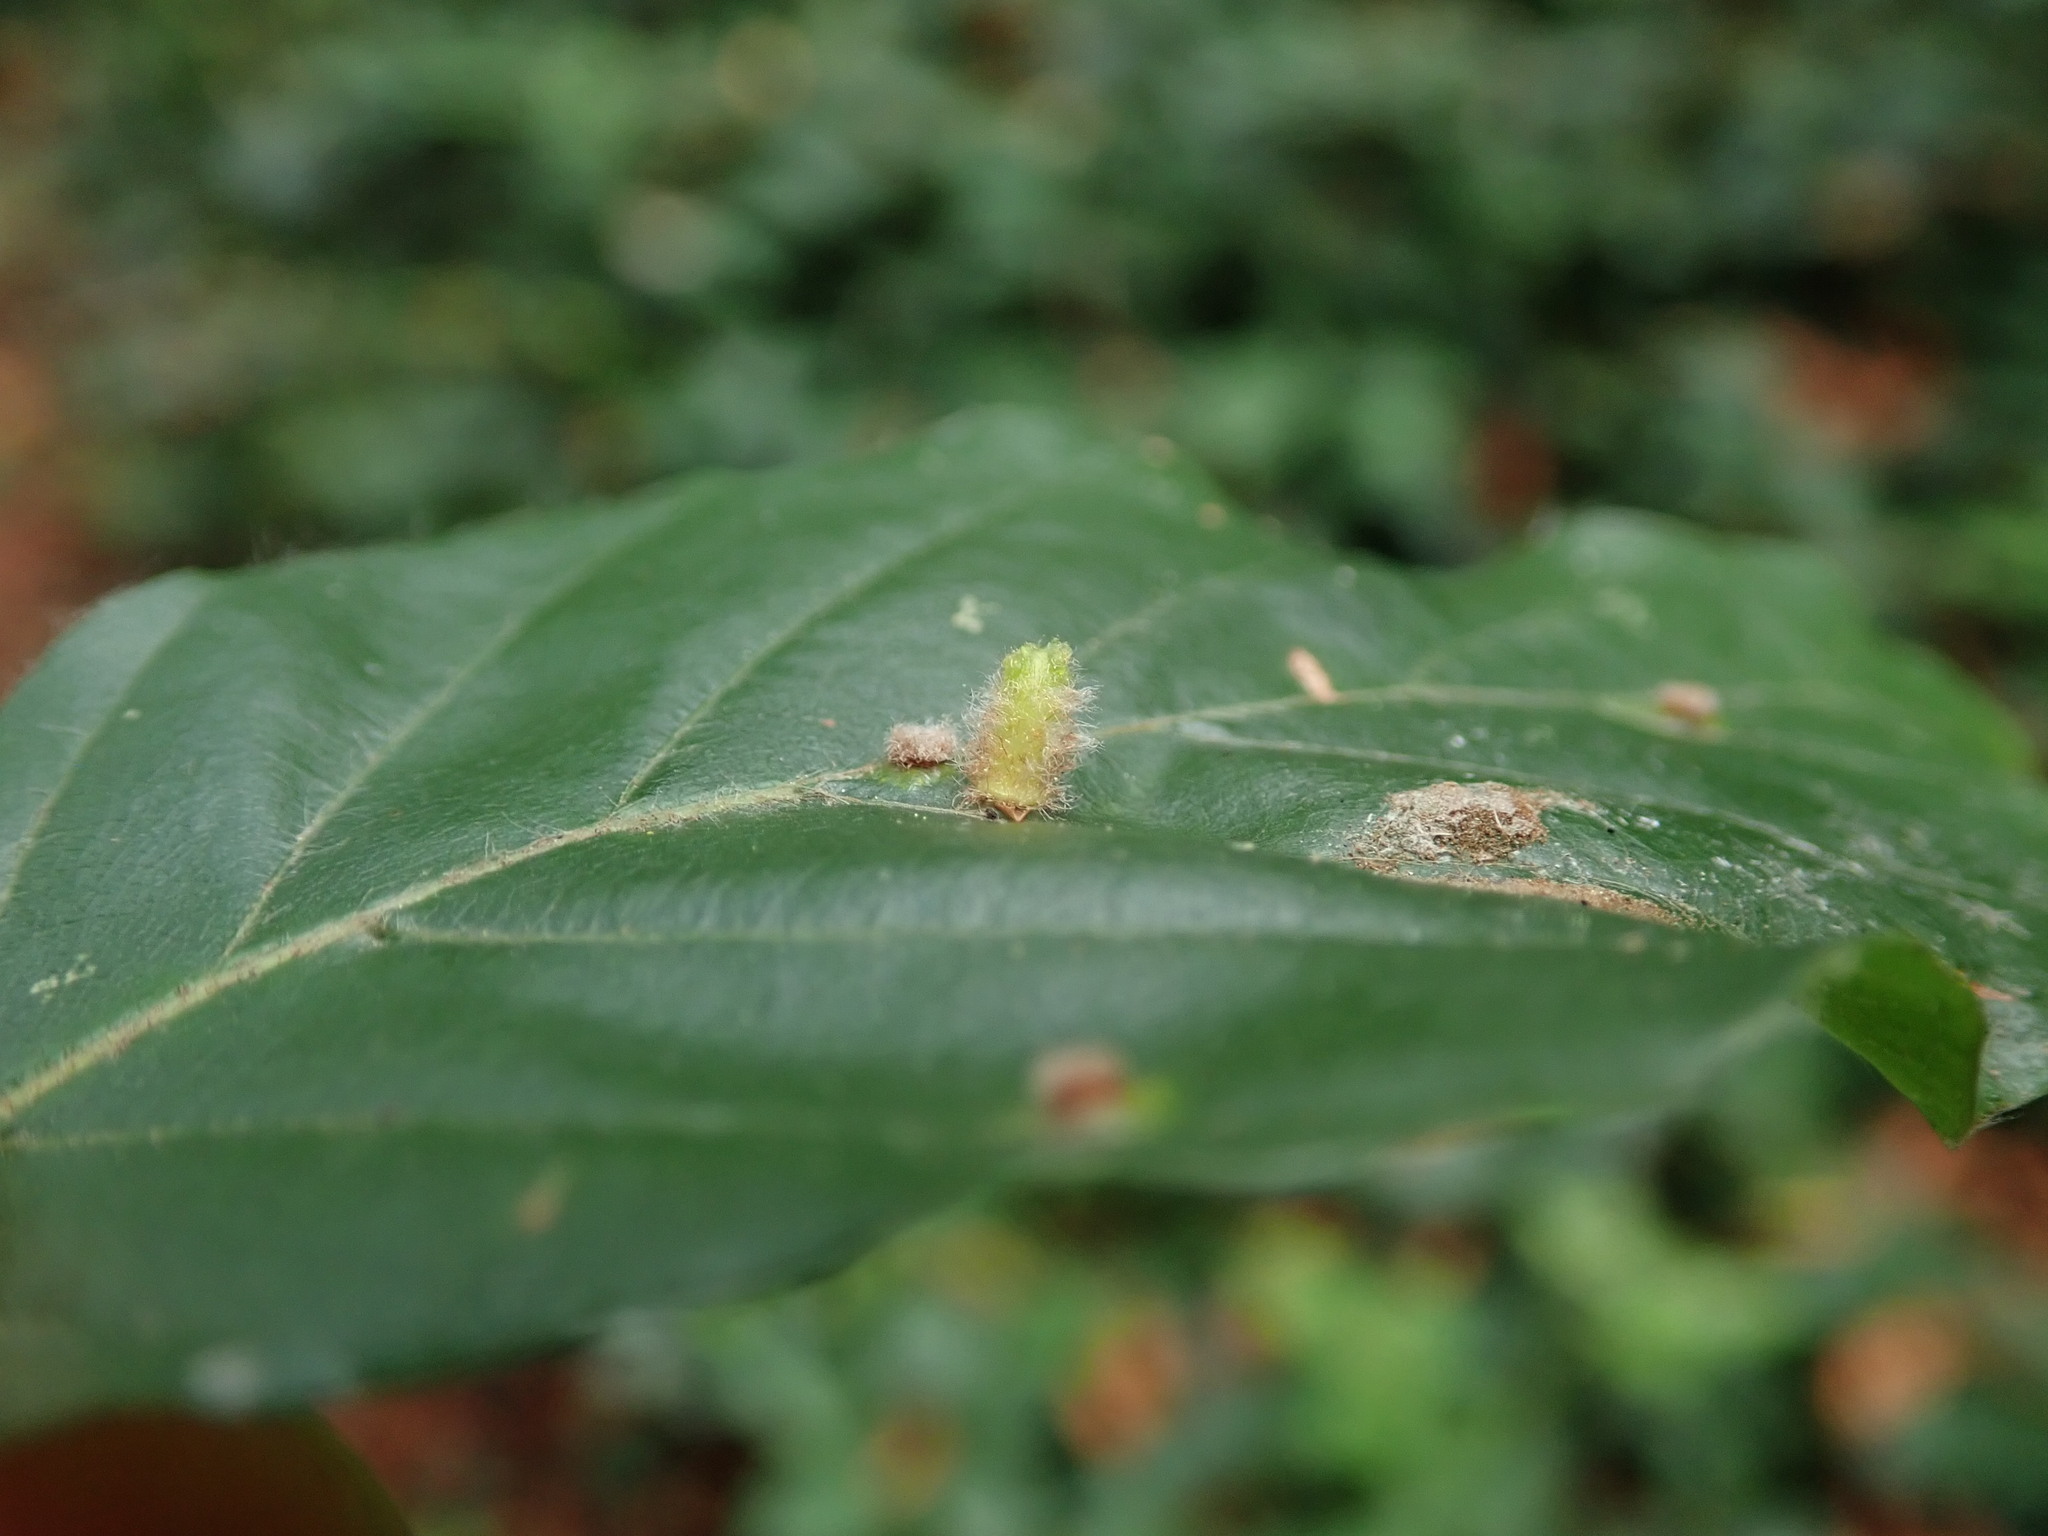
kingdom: Animalia
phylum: Arthropoda
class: Insecta
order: Diptera
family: Cecidomyiidae
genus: Hartigiola
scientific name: Hartigiola annulipes
